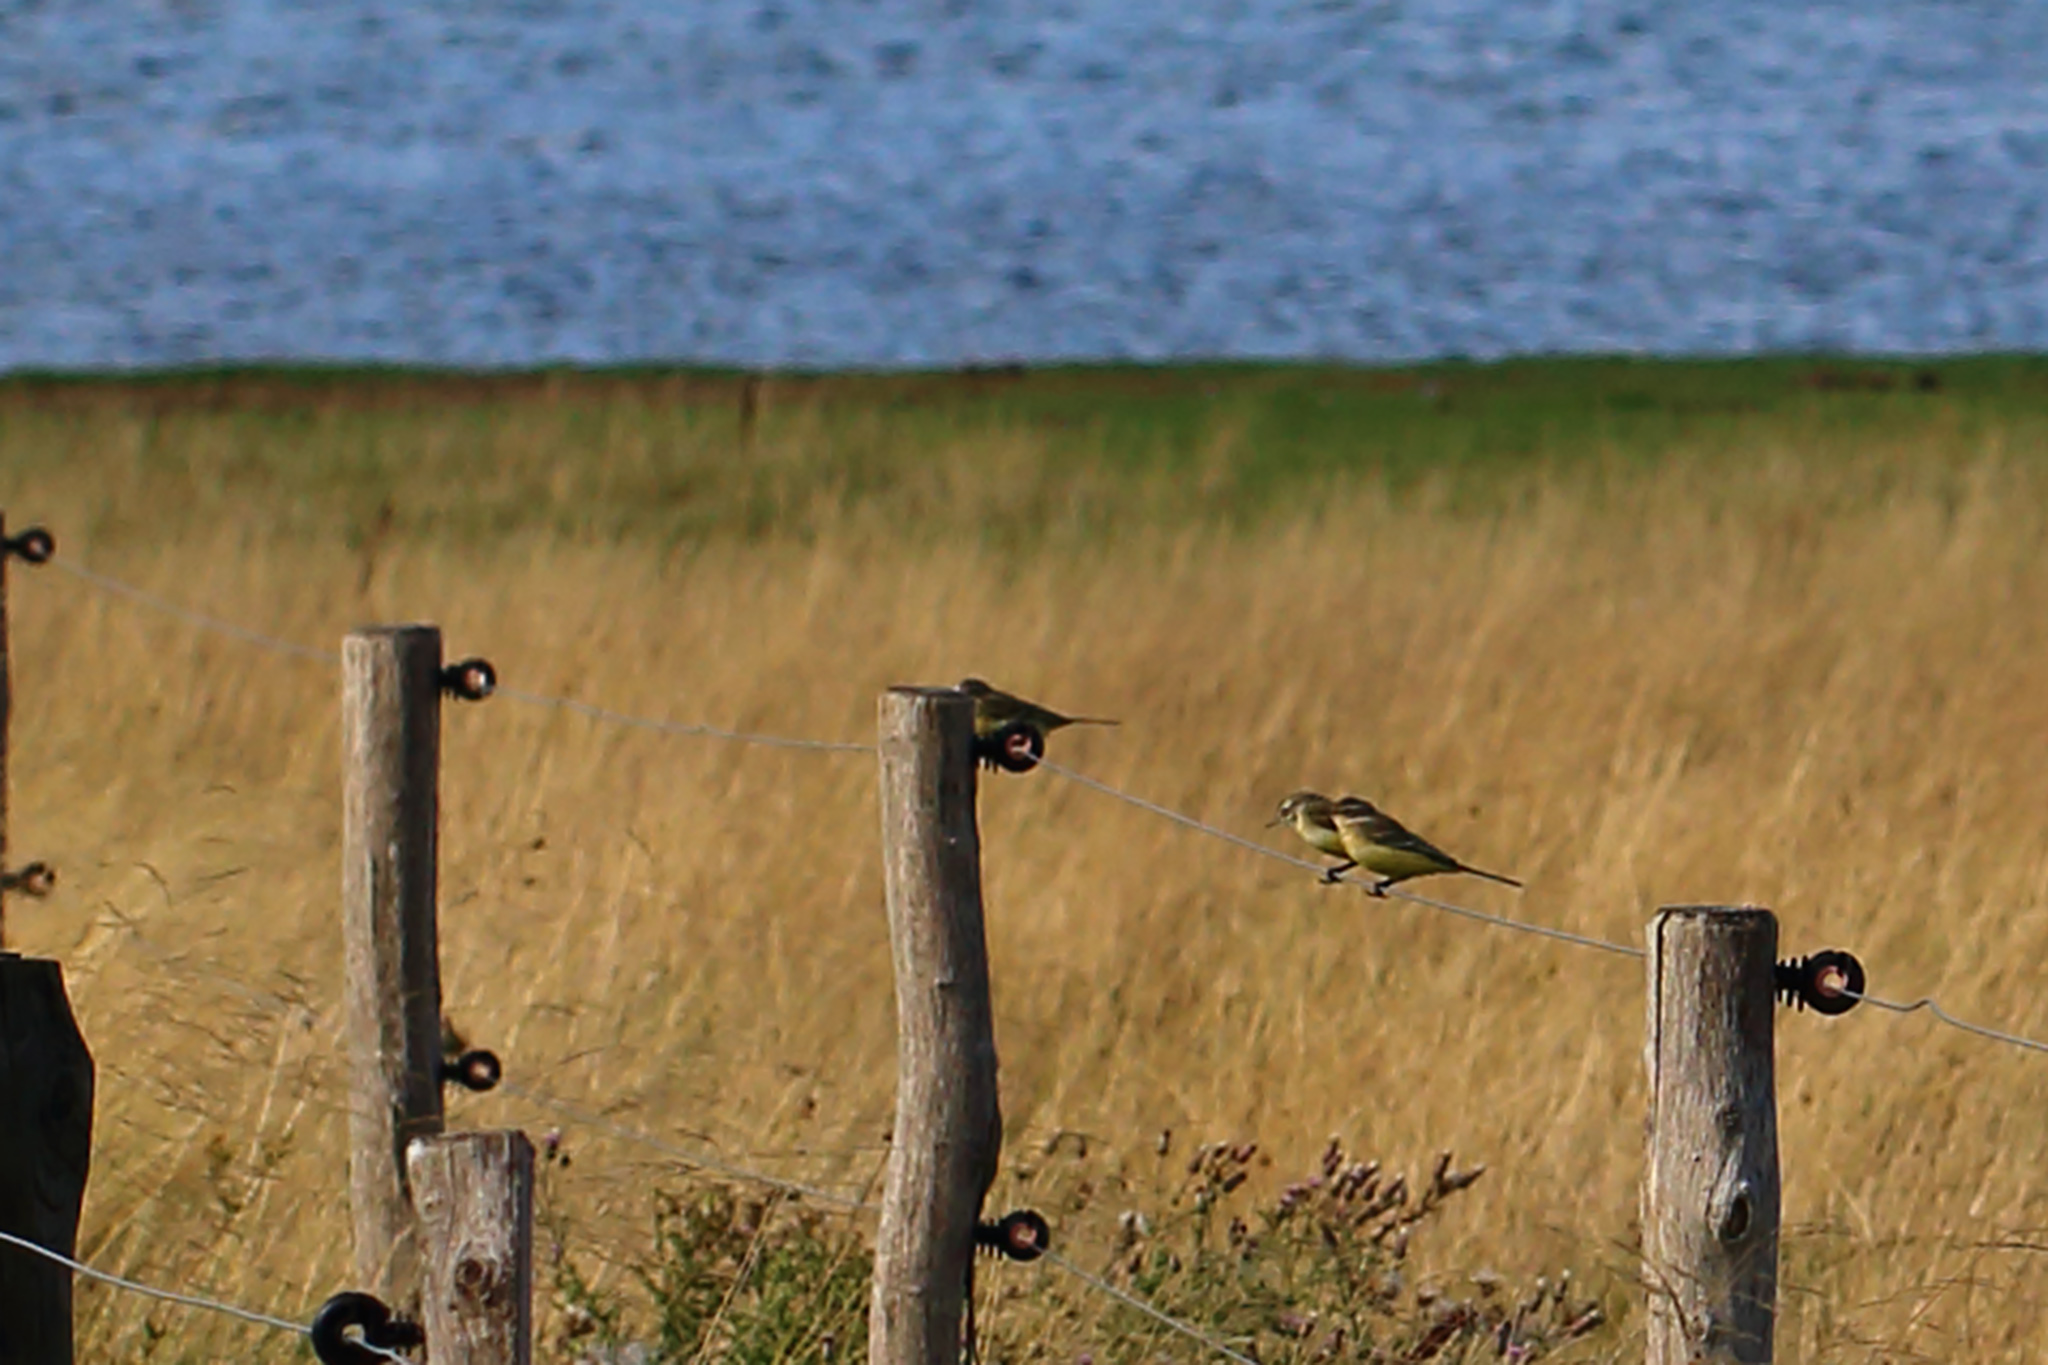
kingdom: Animalia
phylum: Chordata
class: Aves
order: Passeriformes
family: Motacillidae
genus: Motacilla
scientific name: Motacilla flava
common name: Western yellow wagtail
